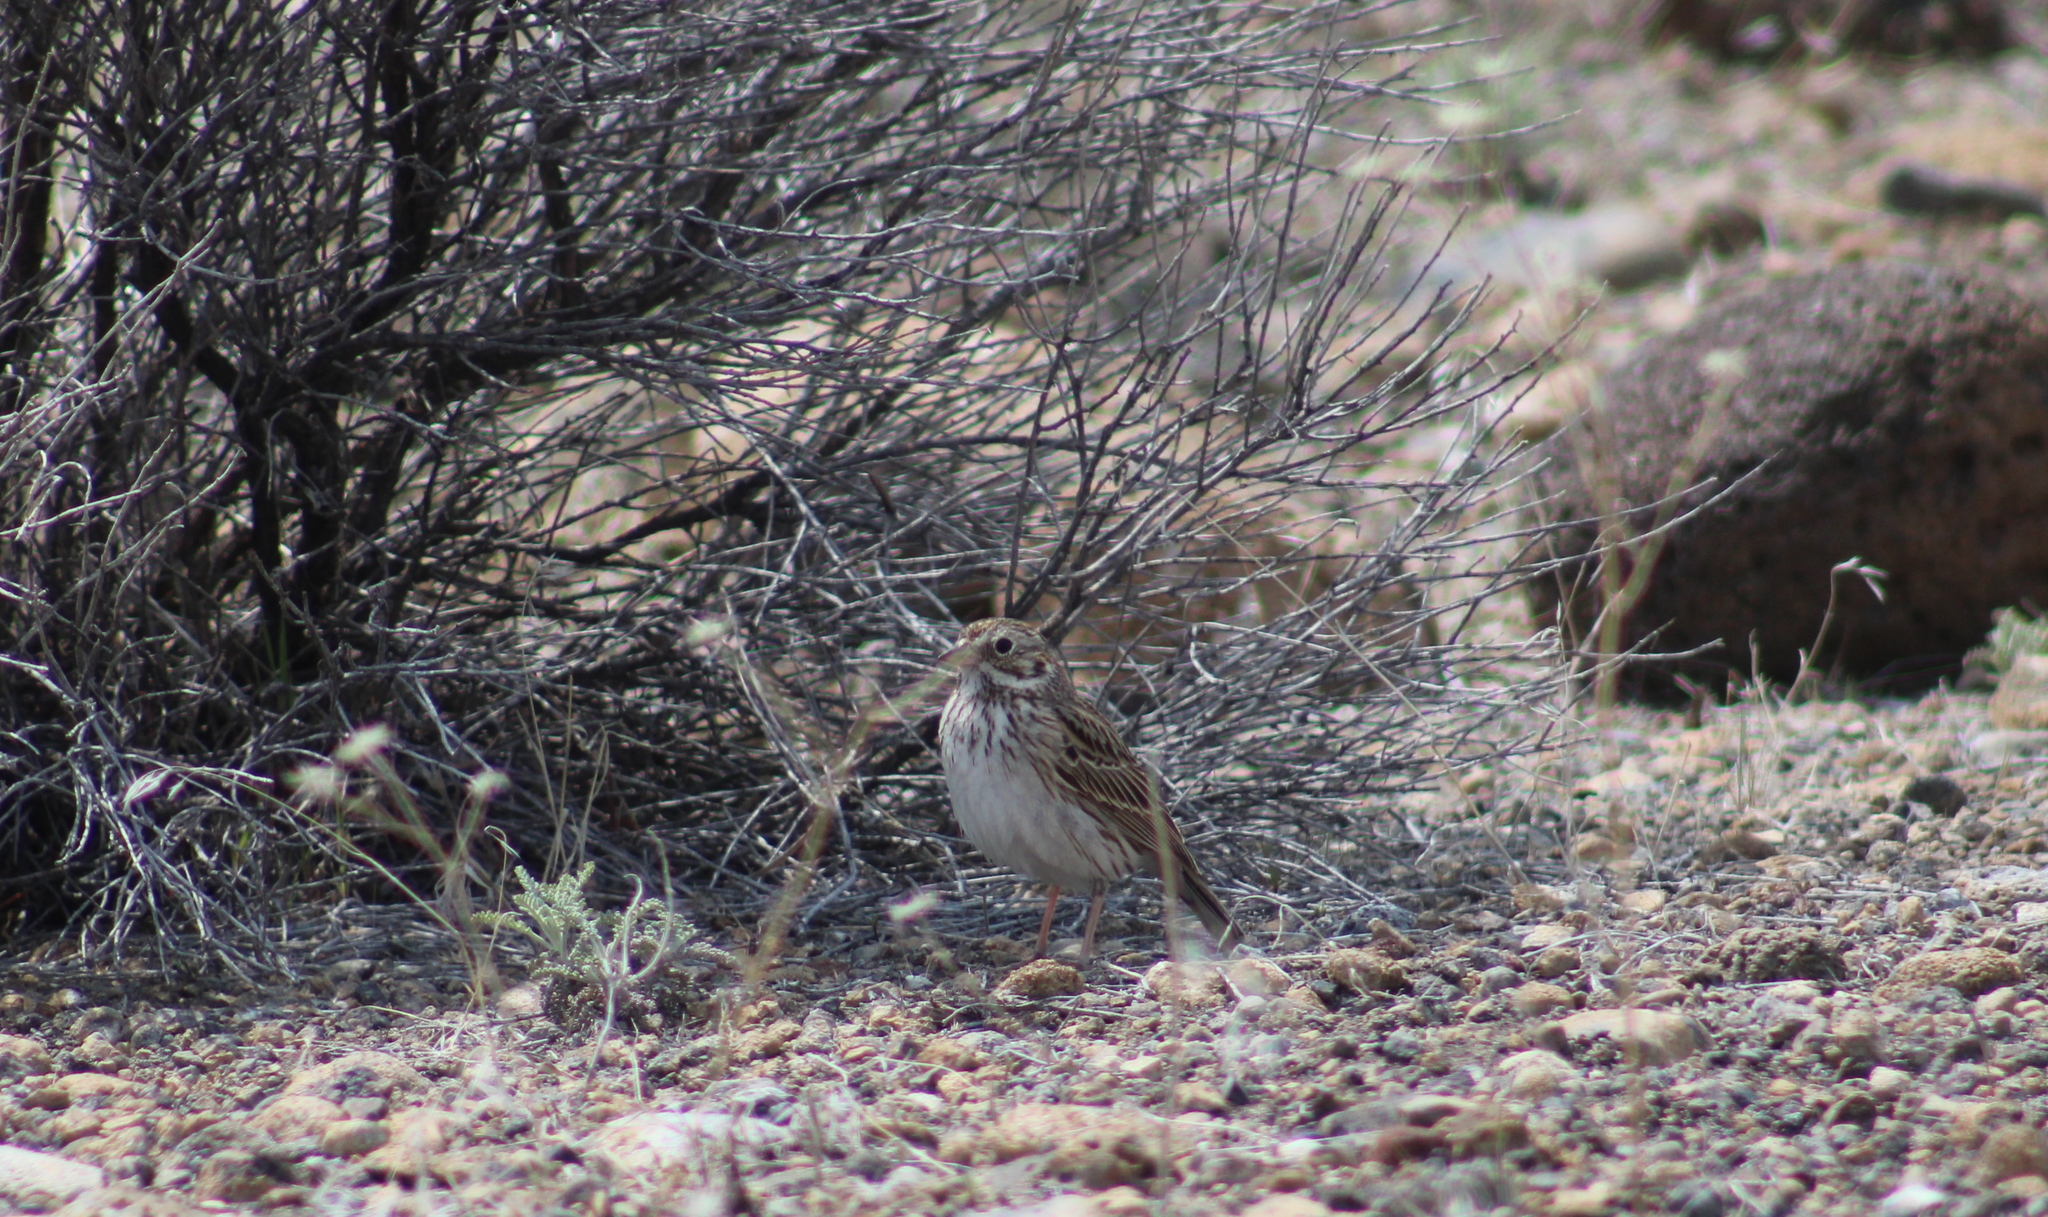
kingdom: Animalia
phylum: Chordata
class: Aves
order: Passeriformes
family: Passerellidae
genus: Pooecetes
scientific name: Pooecetes gramineus
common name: Vesper sparrow
